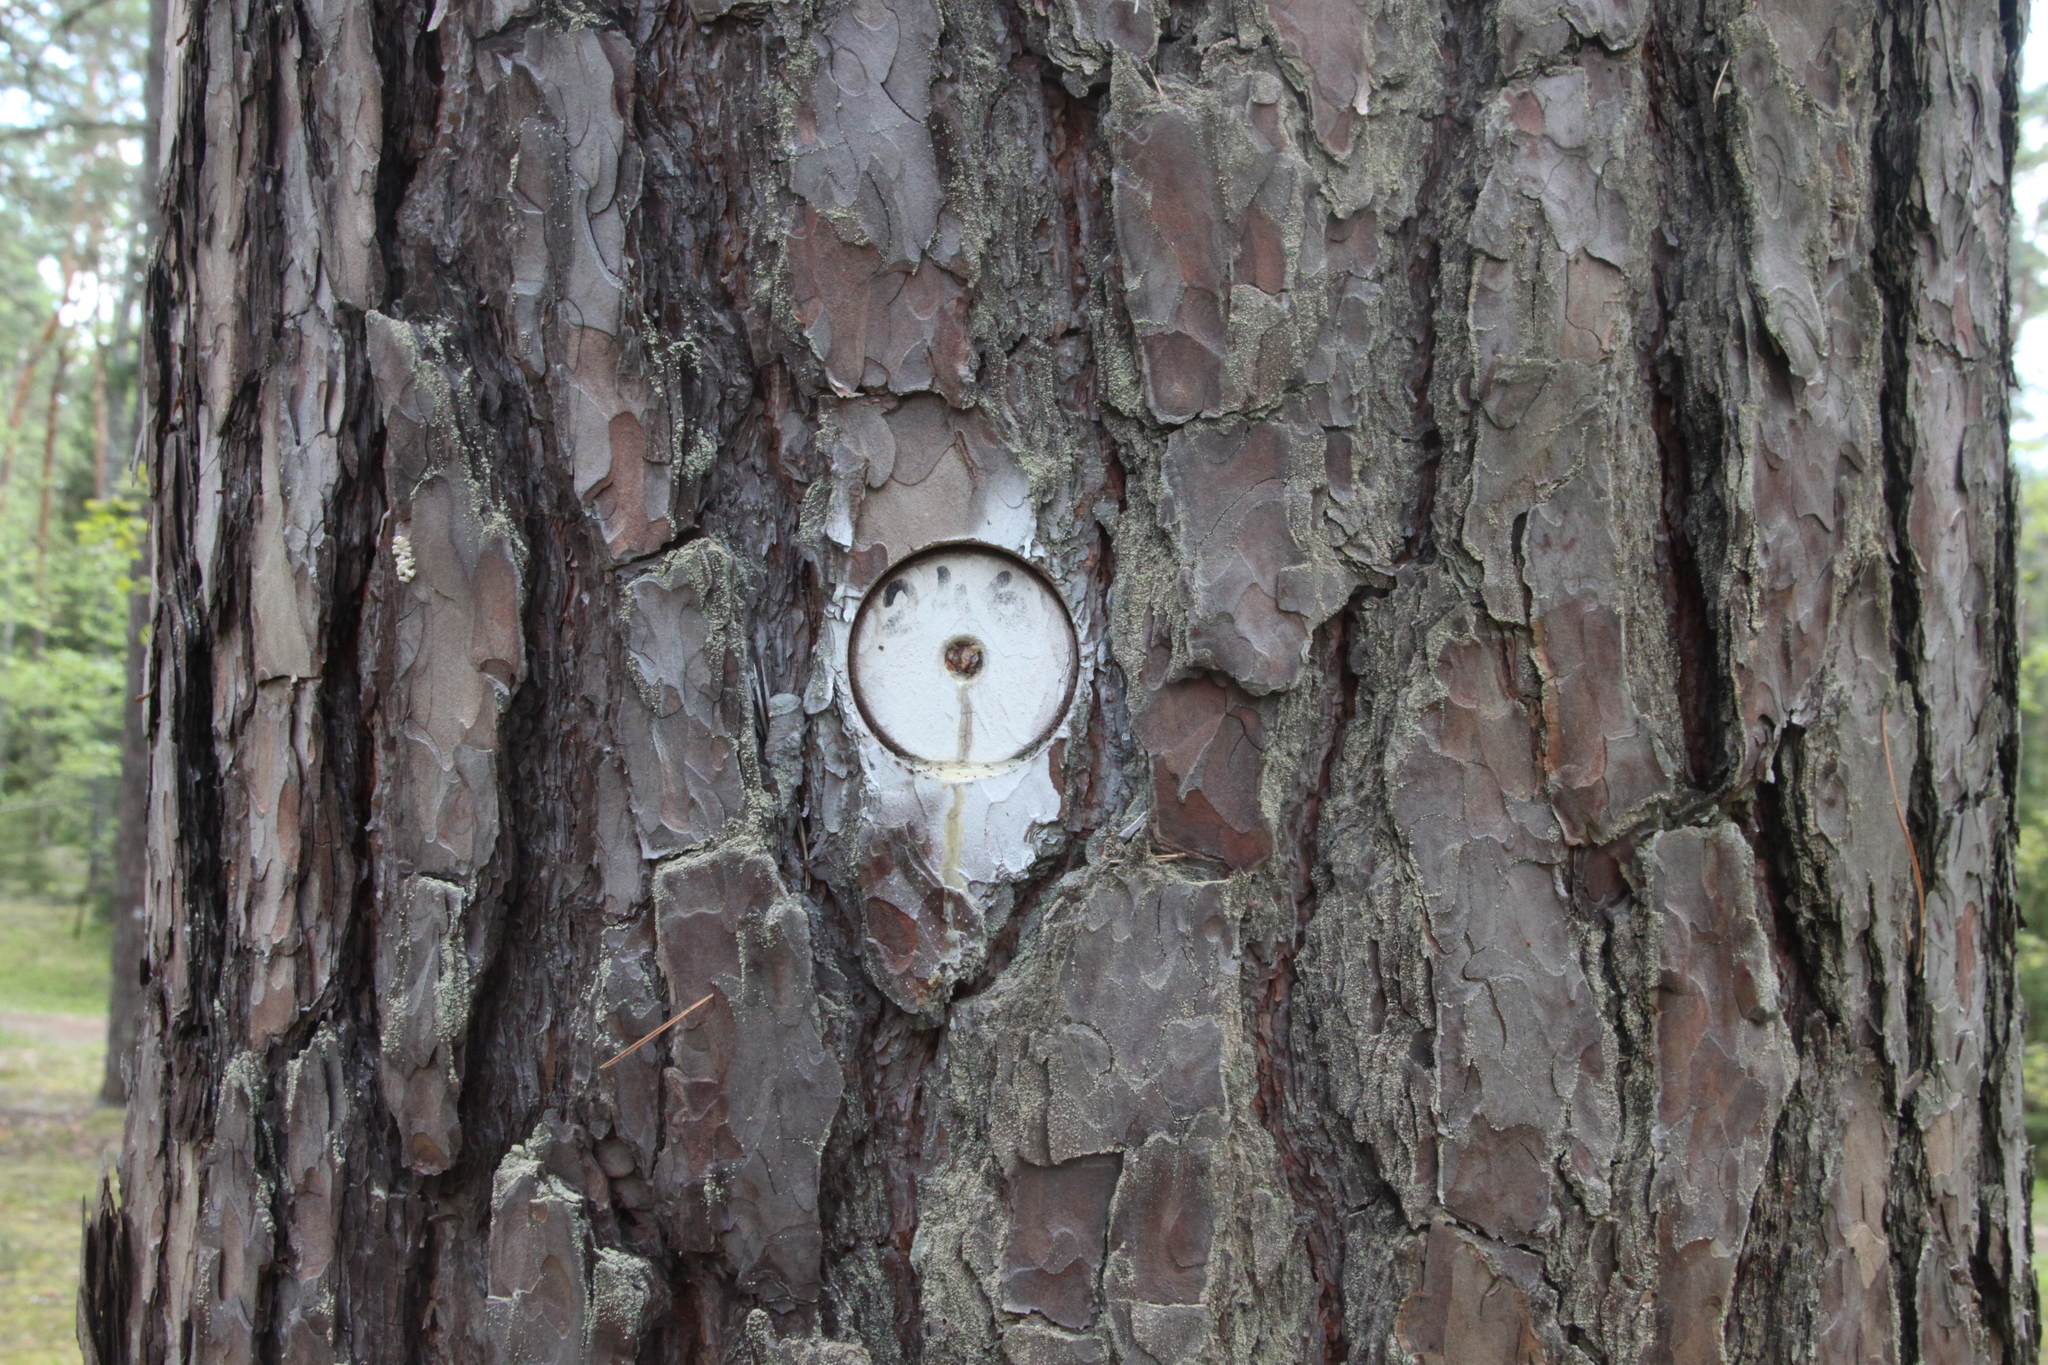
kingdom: Plantae
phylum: Tracheophyta
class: Pinopsida
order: Pinales
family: Pinaceae
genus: Pinus
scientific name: Pinus sylvestris
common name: Scots pine
